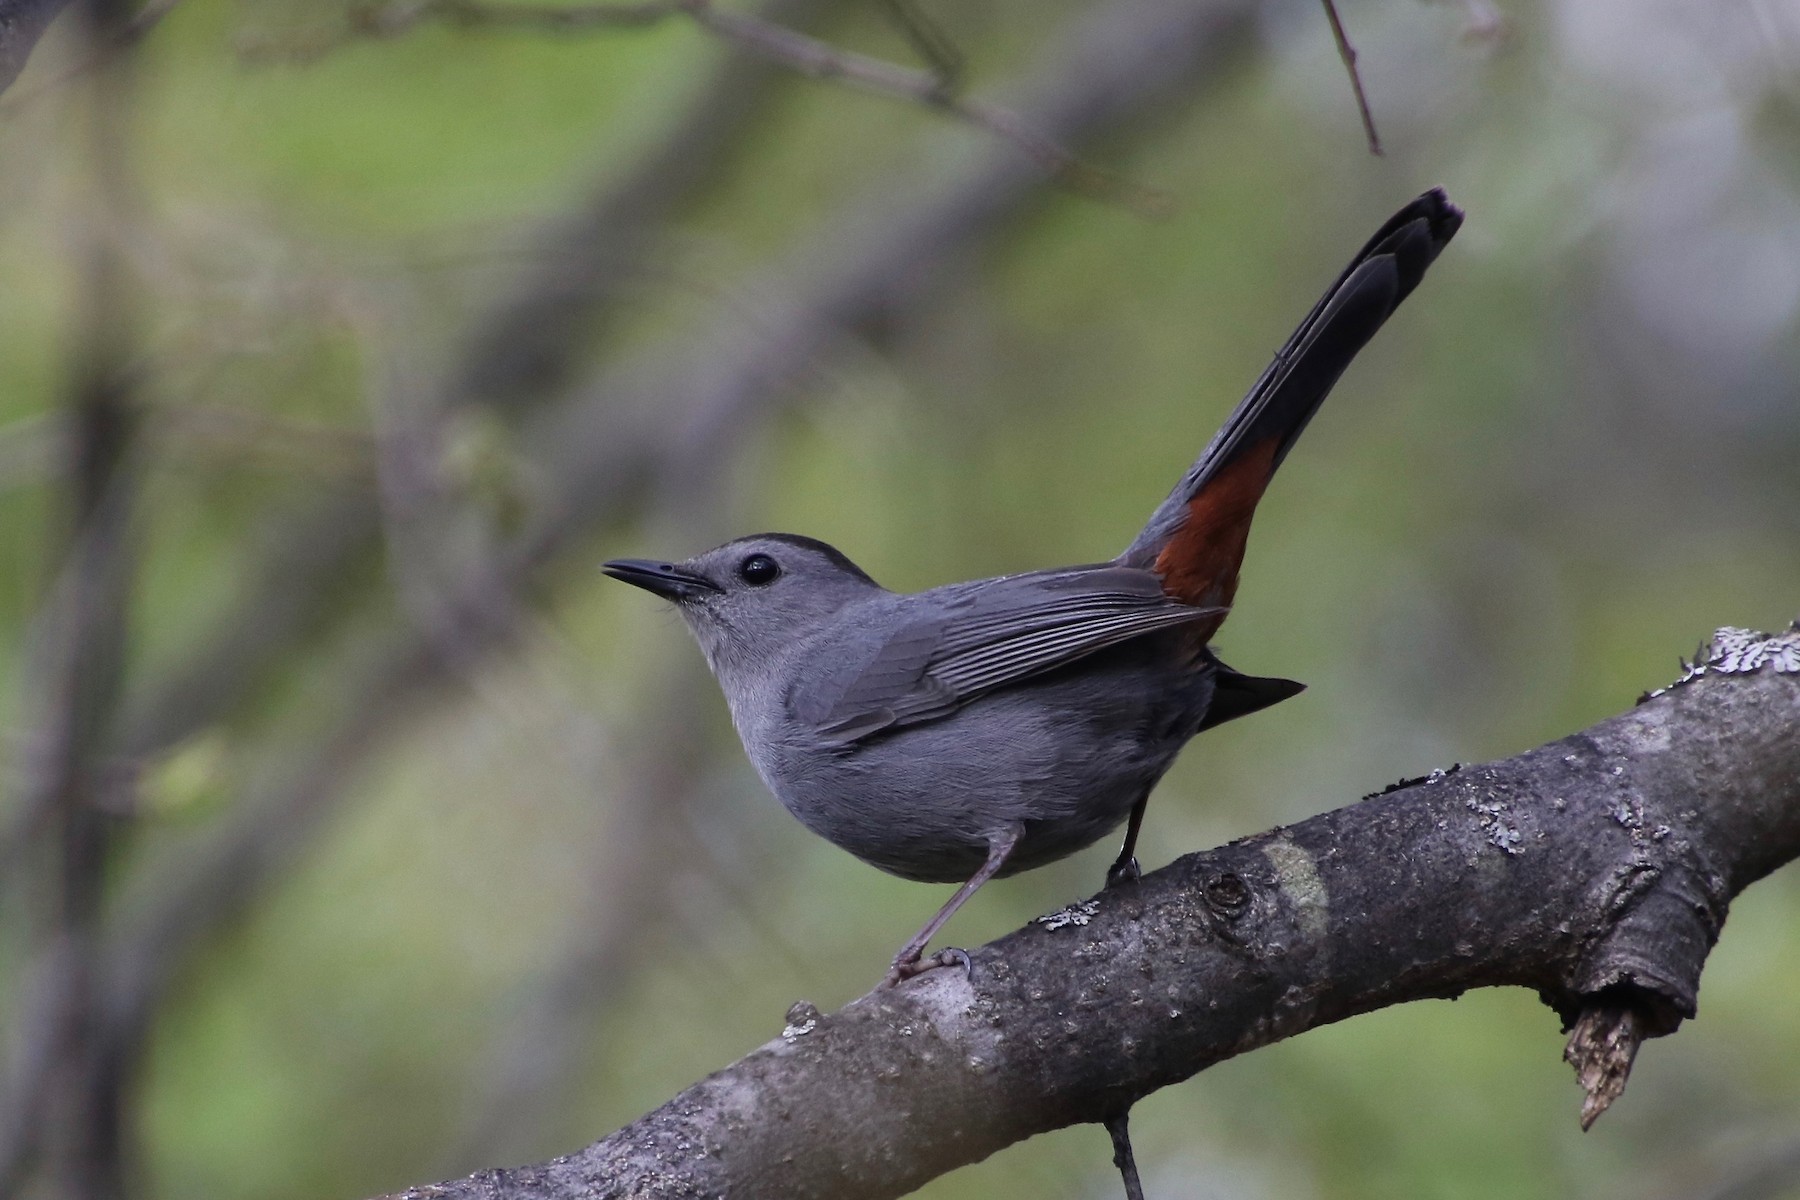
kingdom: Animalia
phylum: Chordata
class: Aves
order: Passeriformes
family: Mimidae
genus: Dumetella
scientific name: Dumetella carolinensis
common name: Gray catbird
